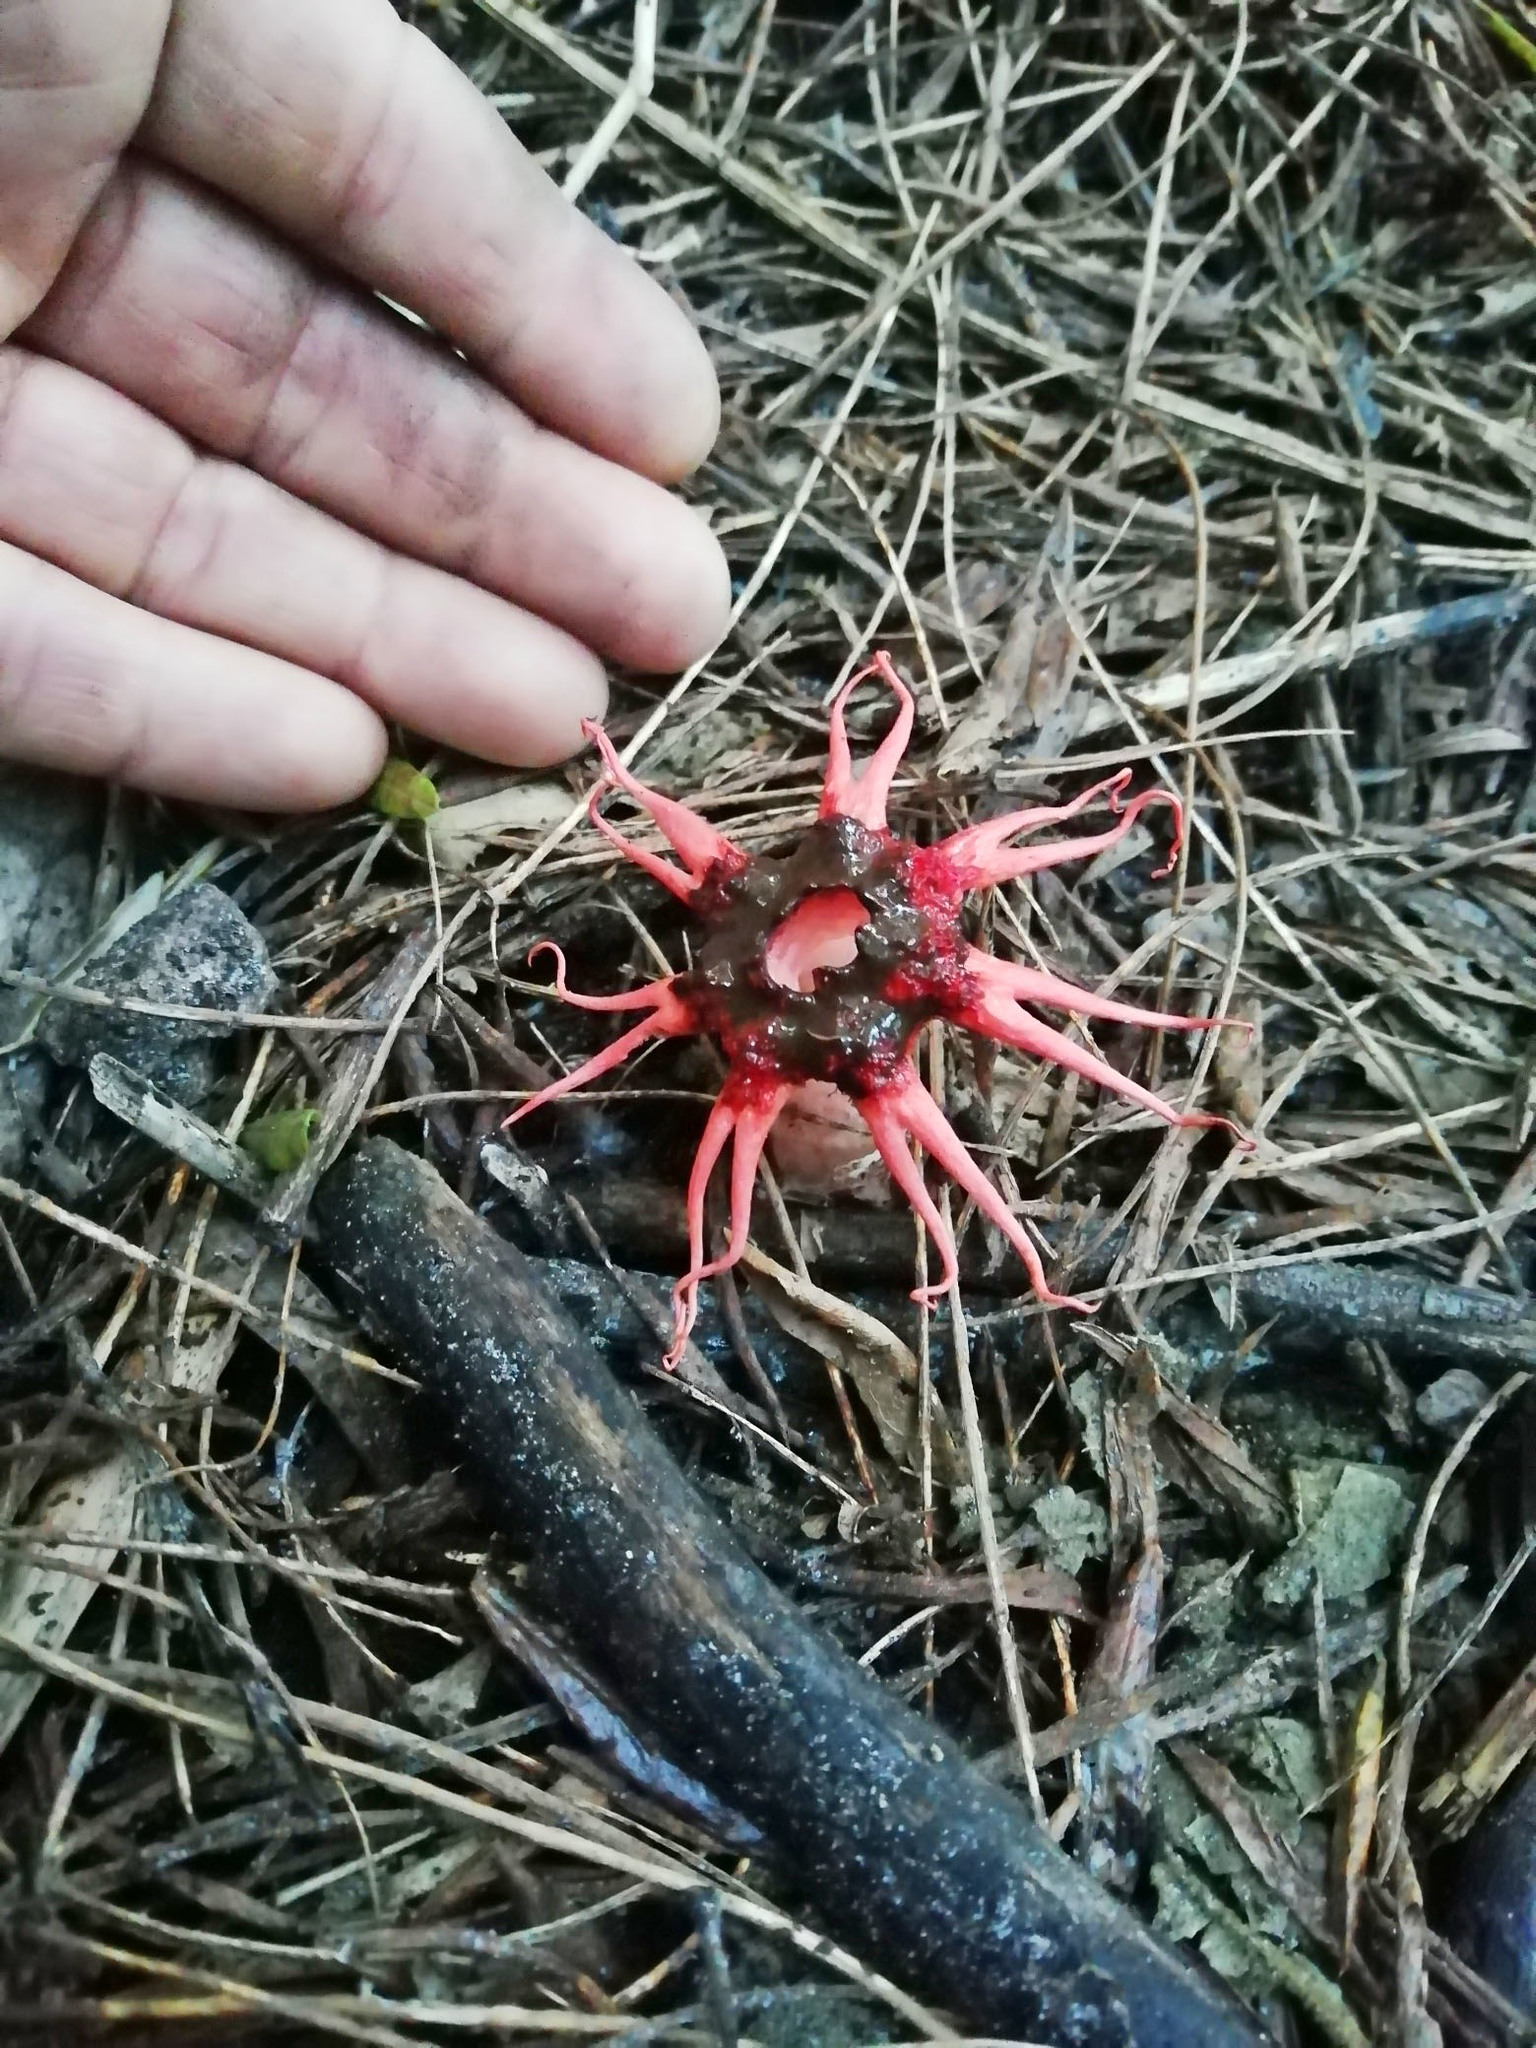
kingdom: Fungi
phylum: Basidiomycota
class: Agaricomycetes
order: Phallales
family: Phallaceae
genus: Aseroe
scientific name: Aseroe rubra
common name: Starfish fungus
